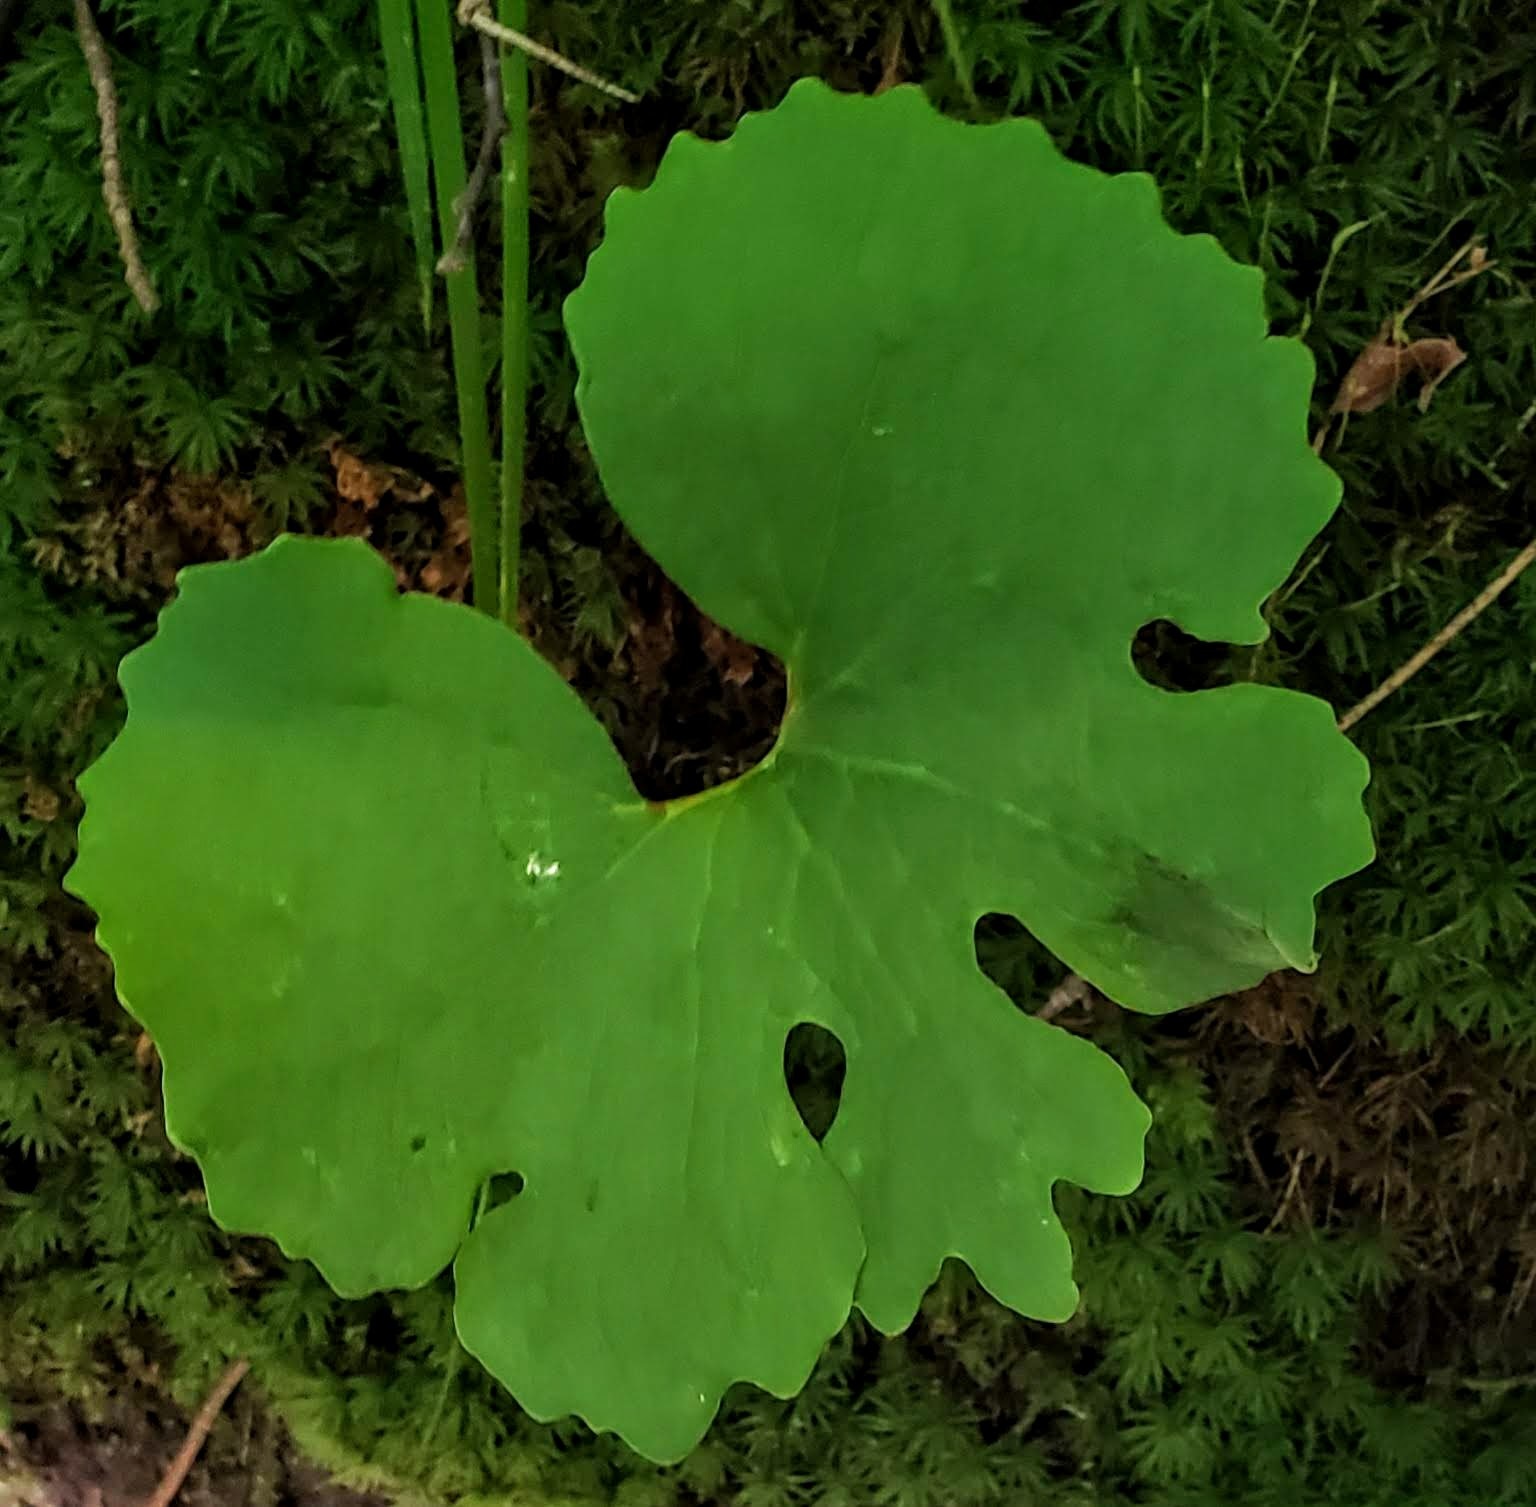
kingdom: Plantae
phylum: Tracheophyta
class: Magnoliopsida
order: Ranunculales
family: Papaveraceae
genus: Sanguinaria
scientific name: Sanguinaria canadensis
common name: Bloodroot
